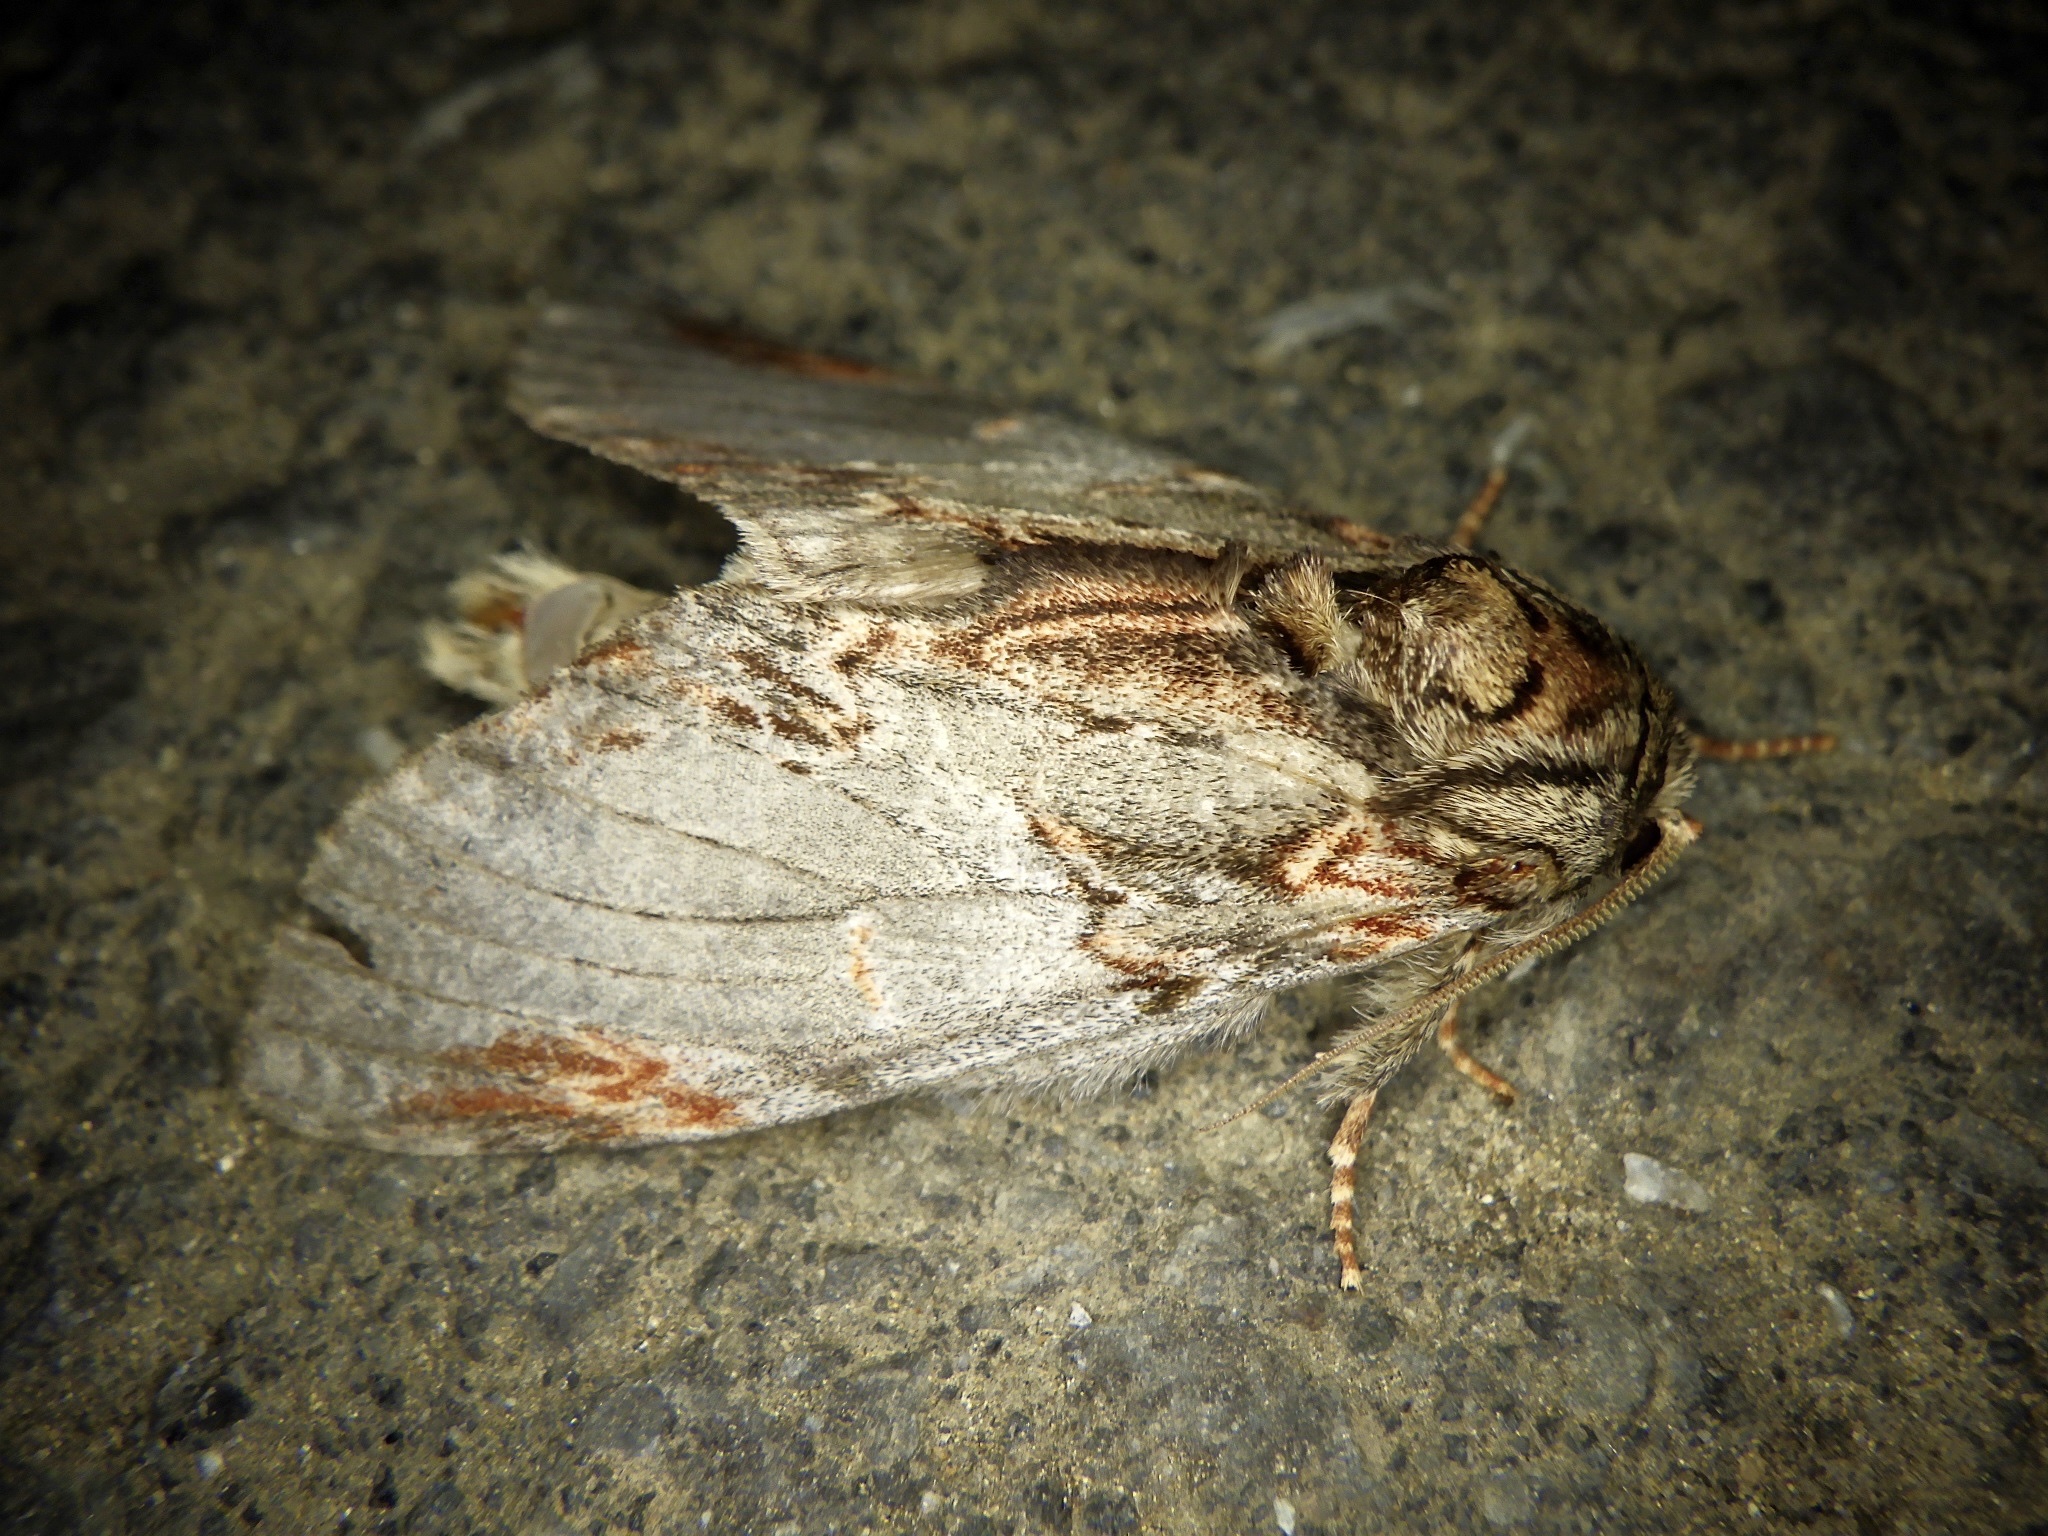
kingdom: Animalia
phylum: Arthropoda
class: Insecta
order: Lepidoptera
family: Notodontidae
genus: Peridea
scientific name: Peridea graeseri
